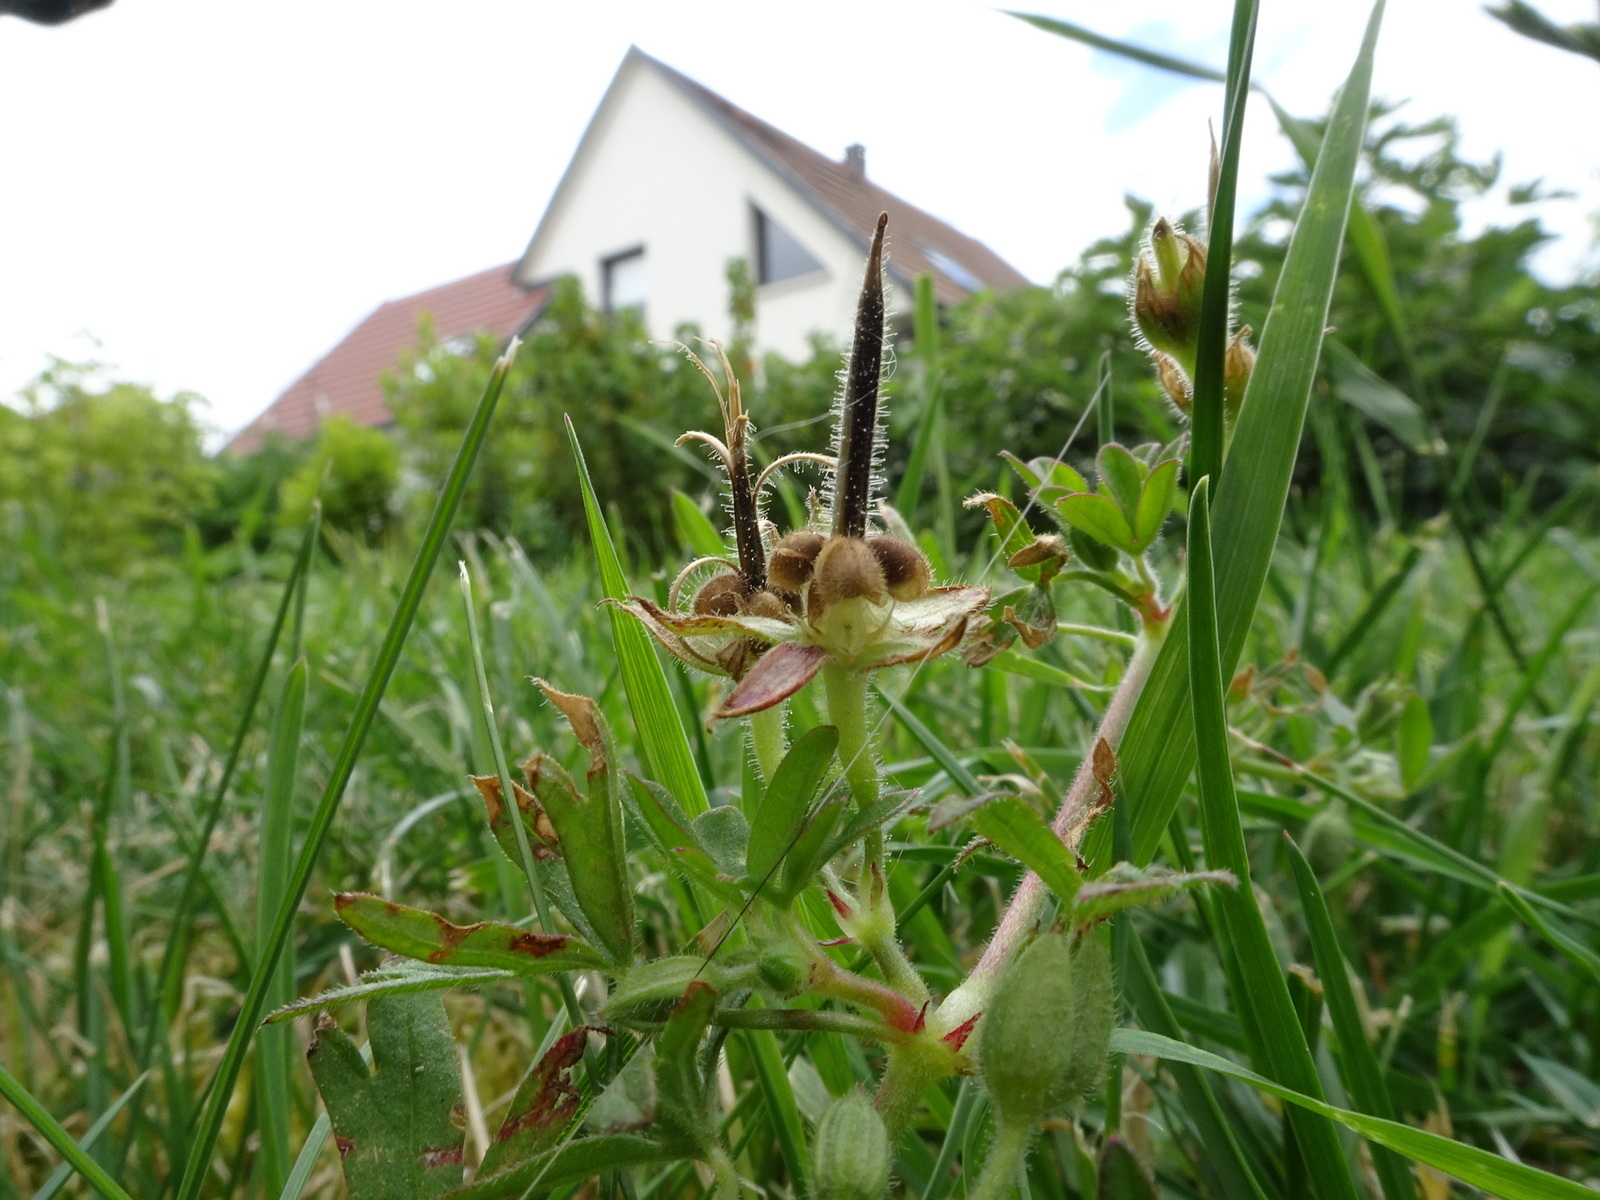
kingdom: Plantae
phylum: Tracheophyta
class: Magnoliopsida
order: Geraniales
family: Geraniaceae
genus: Geranium
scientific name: Geranium dissectum
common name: Cut-leaved crane's-bill
